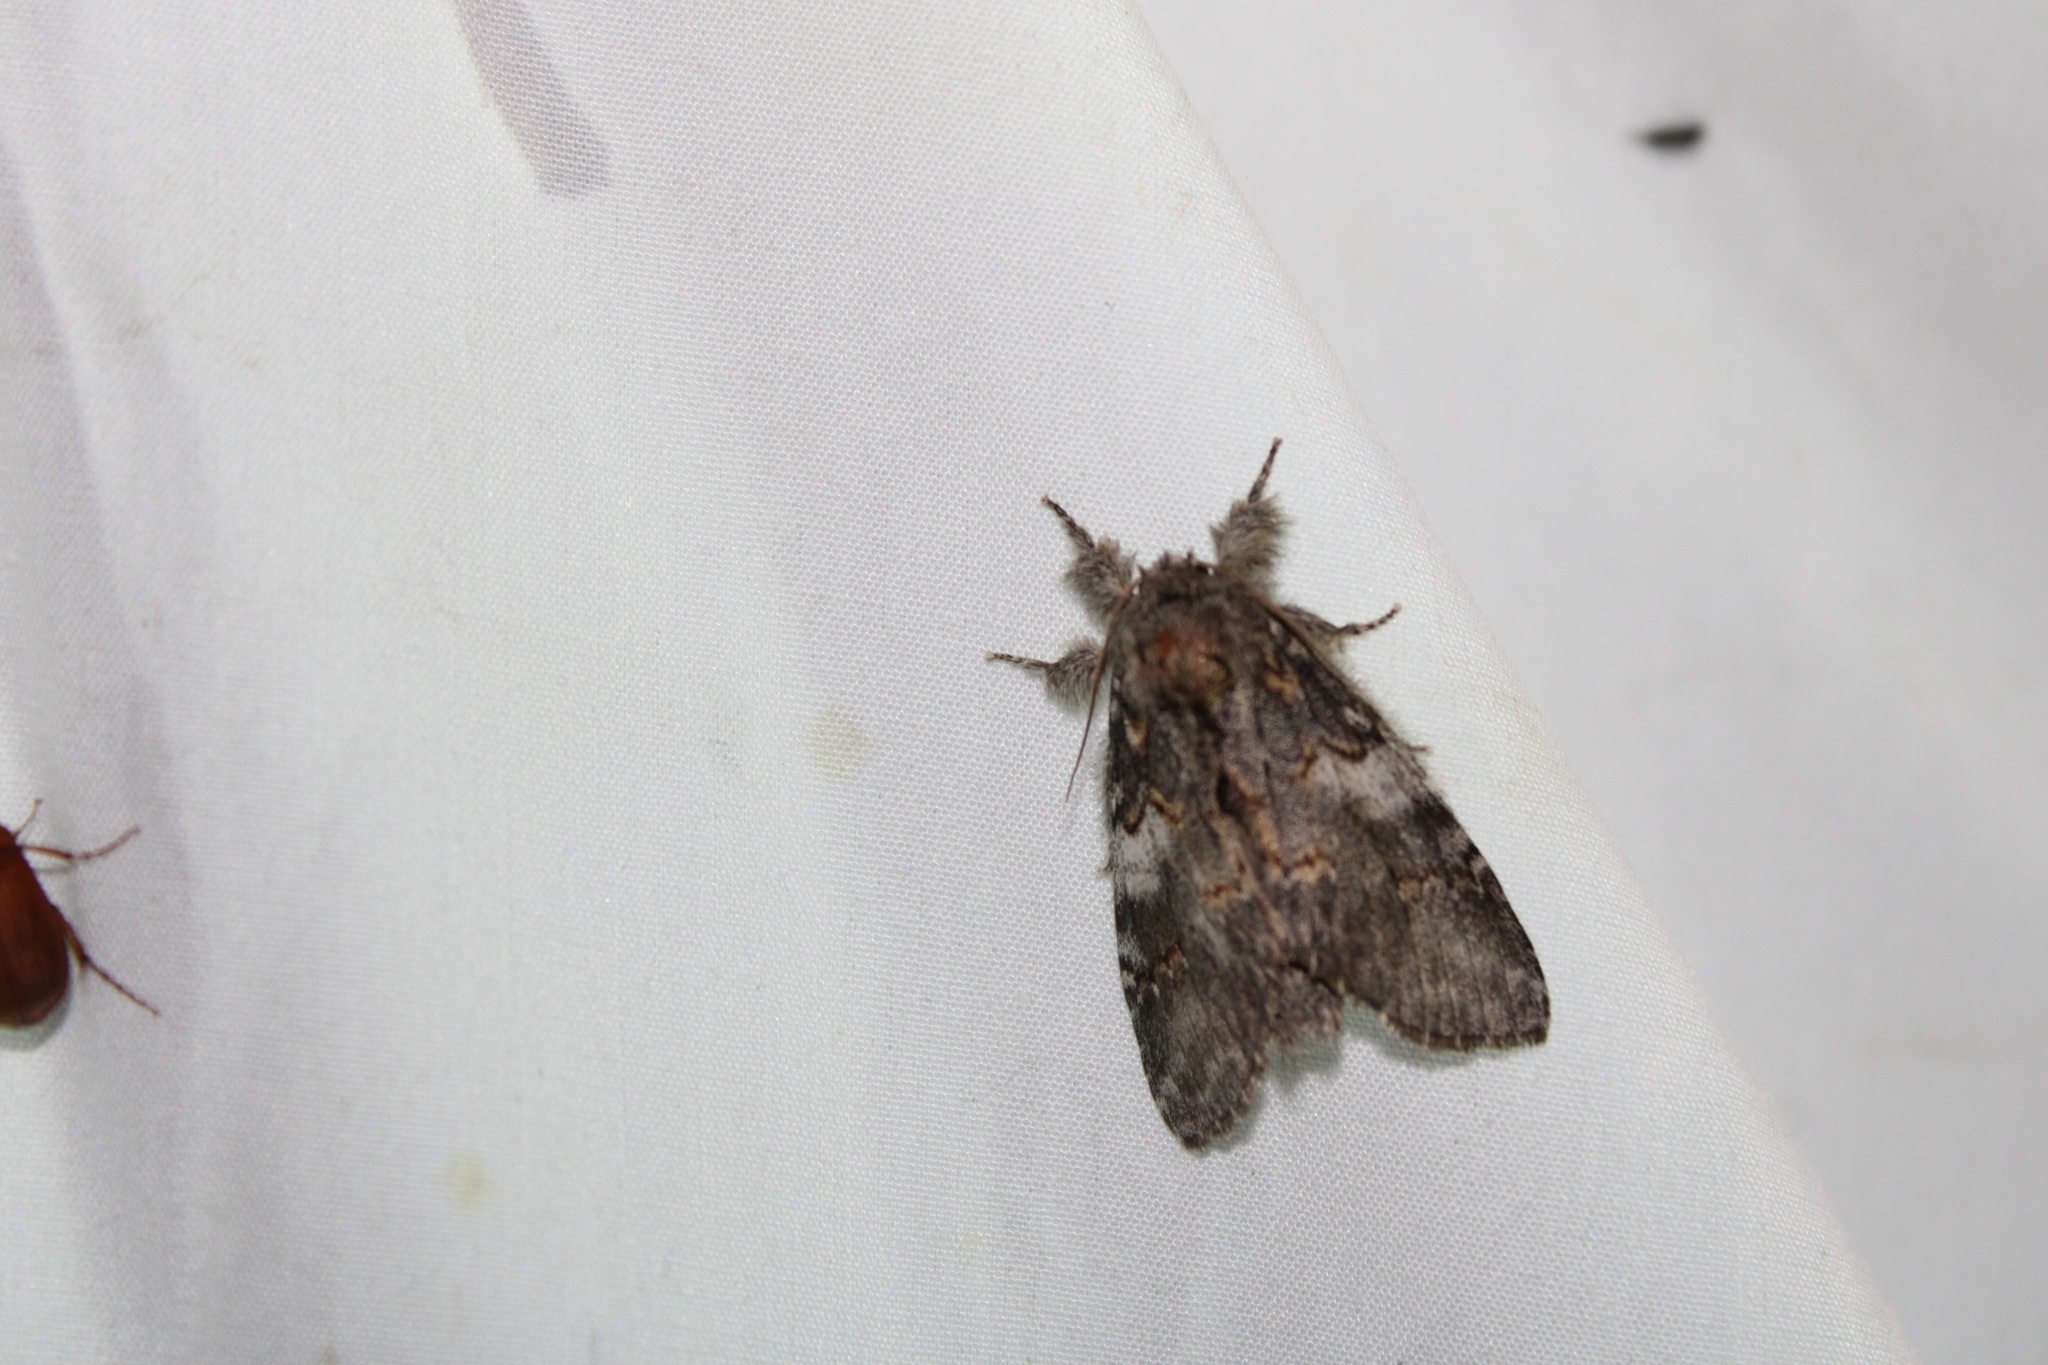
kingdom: Animalia
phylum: Arthropoda
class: Insecta
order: Lepidoptera
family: Notodontidae
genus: Peridea
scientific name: Peridea angulosa
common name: Angulose prominent
